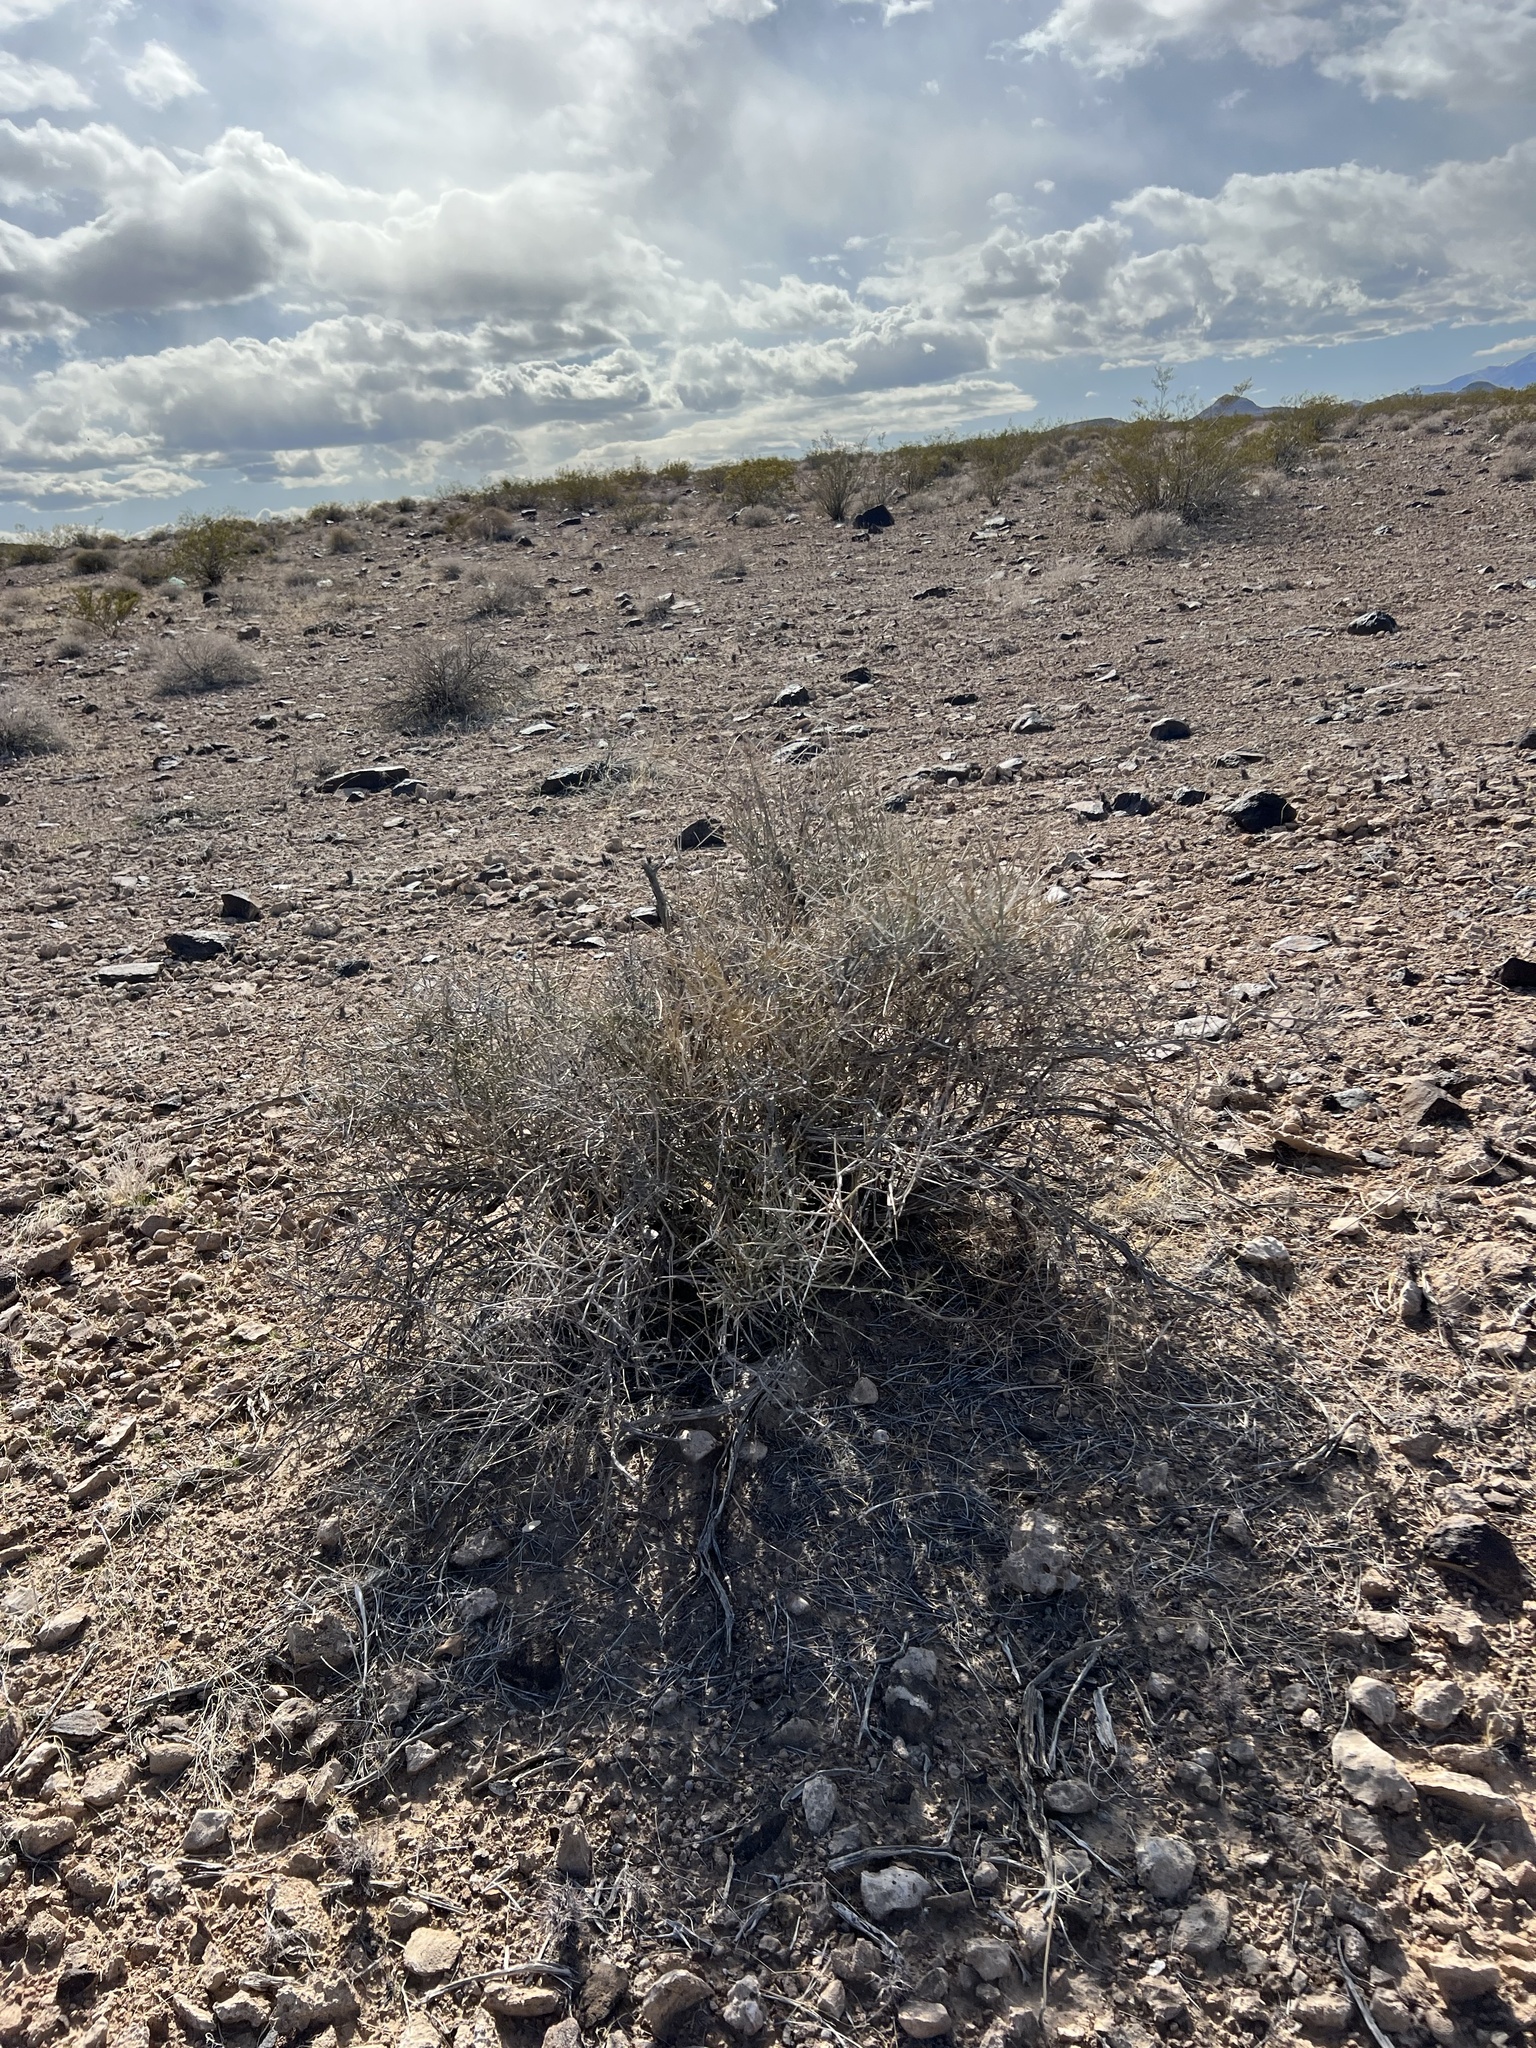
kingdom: Plantae
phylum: Tracheophyta
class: Gnetopsida
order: Ephedrales
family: Ephedraceae
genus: Ephedra
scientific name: Ephedra nevadensis
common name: Gray ephedra
